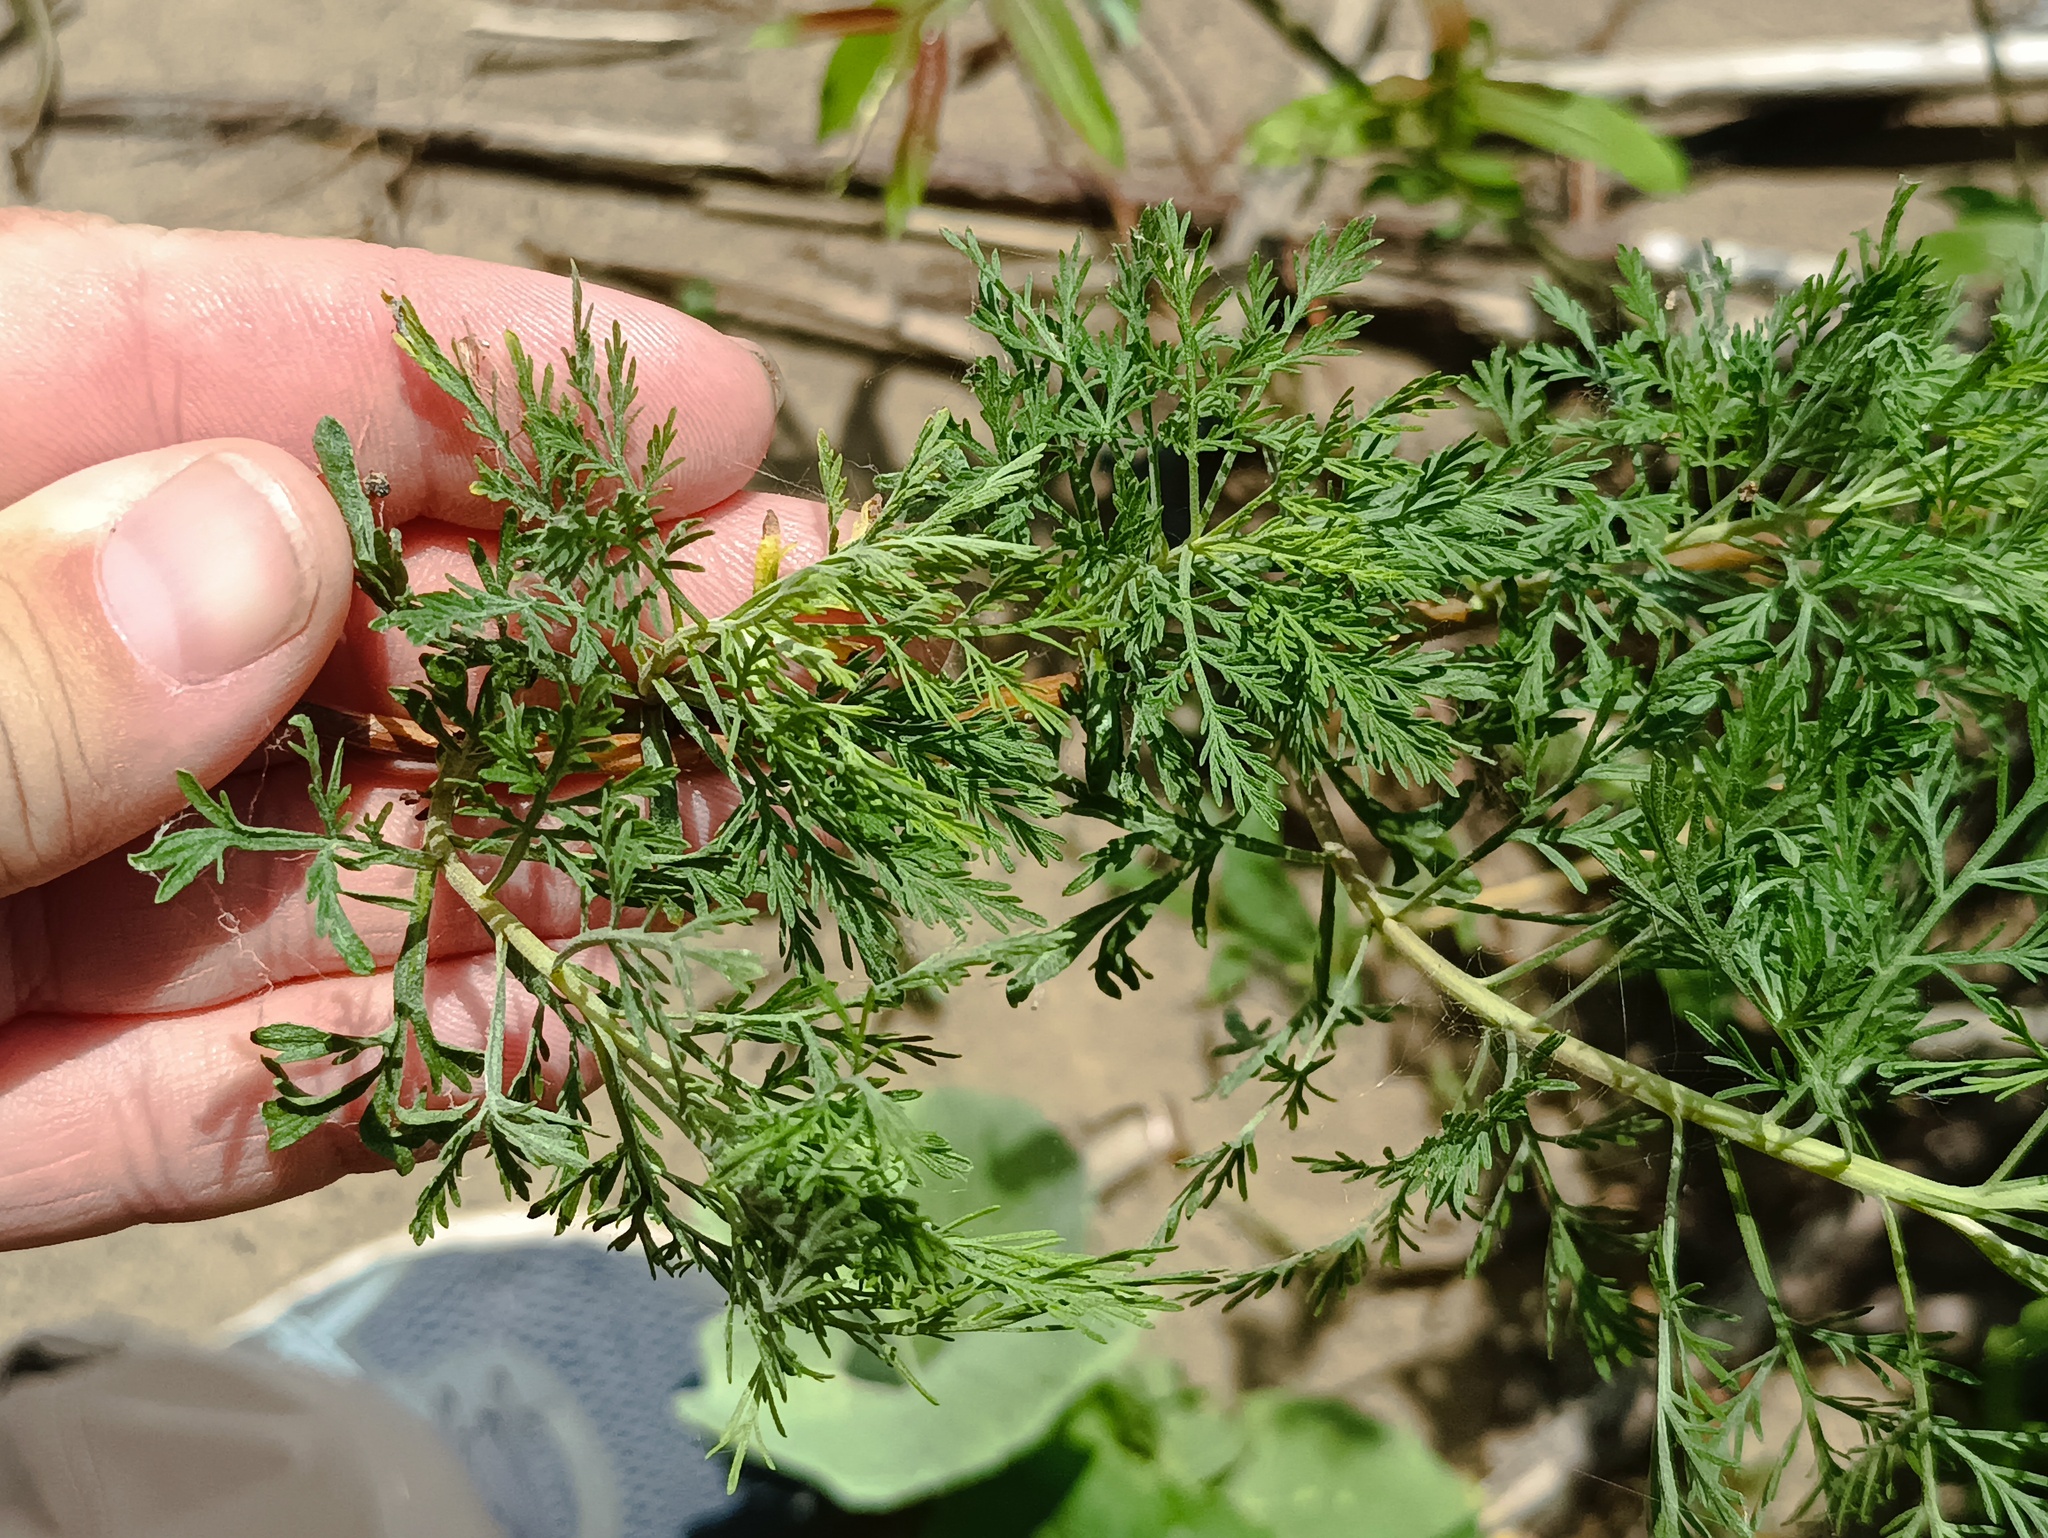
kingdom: Plantae
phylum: Tracheophyta
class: Magnoliopsida
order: Asterales
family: Asteraceae
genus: Artemisia
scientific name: Artemisia abrotanum
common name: Southernwood
